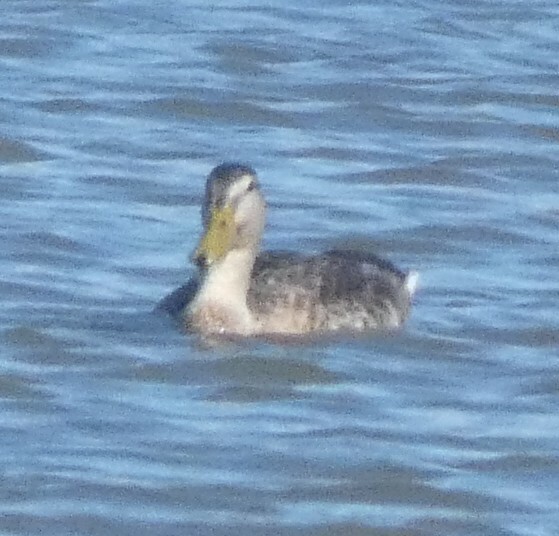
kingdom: Animalia
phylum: Chordata
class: Aves
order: Anseriformes
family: Anatidae
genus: Anas
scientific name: Anas platyrhynchos
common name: Mallard
